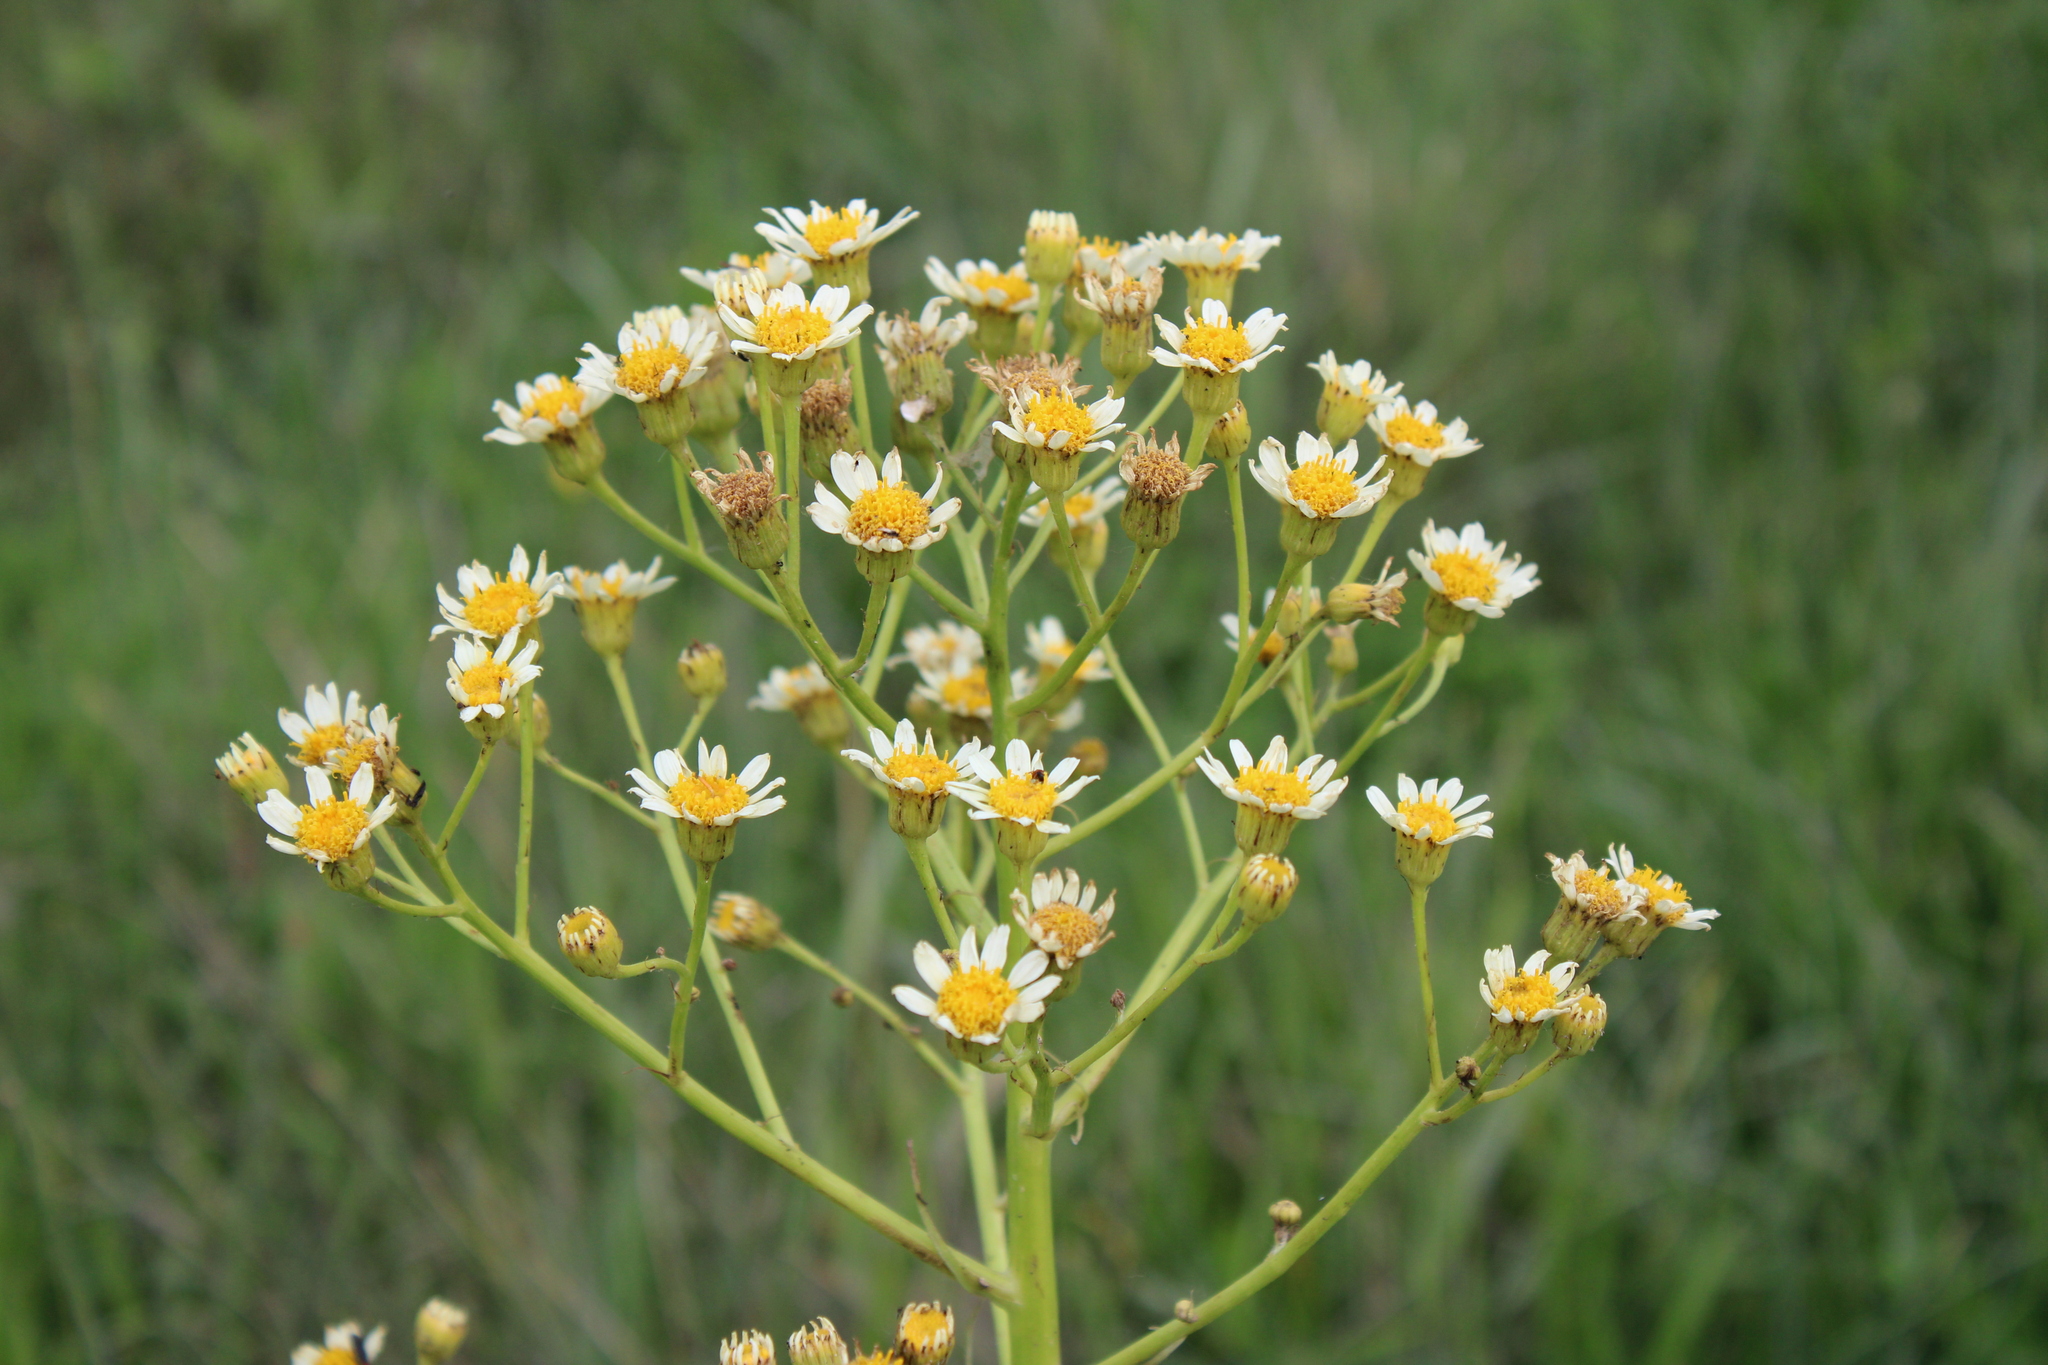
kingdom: Plantae
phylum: Tracheophyta
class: Magnoliopsida
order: Asterales
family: Asteraceae
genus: Senecio
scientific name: Senecio bonariensis
